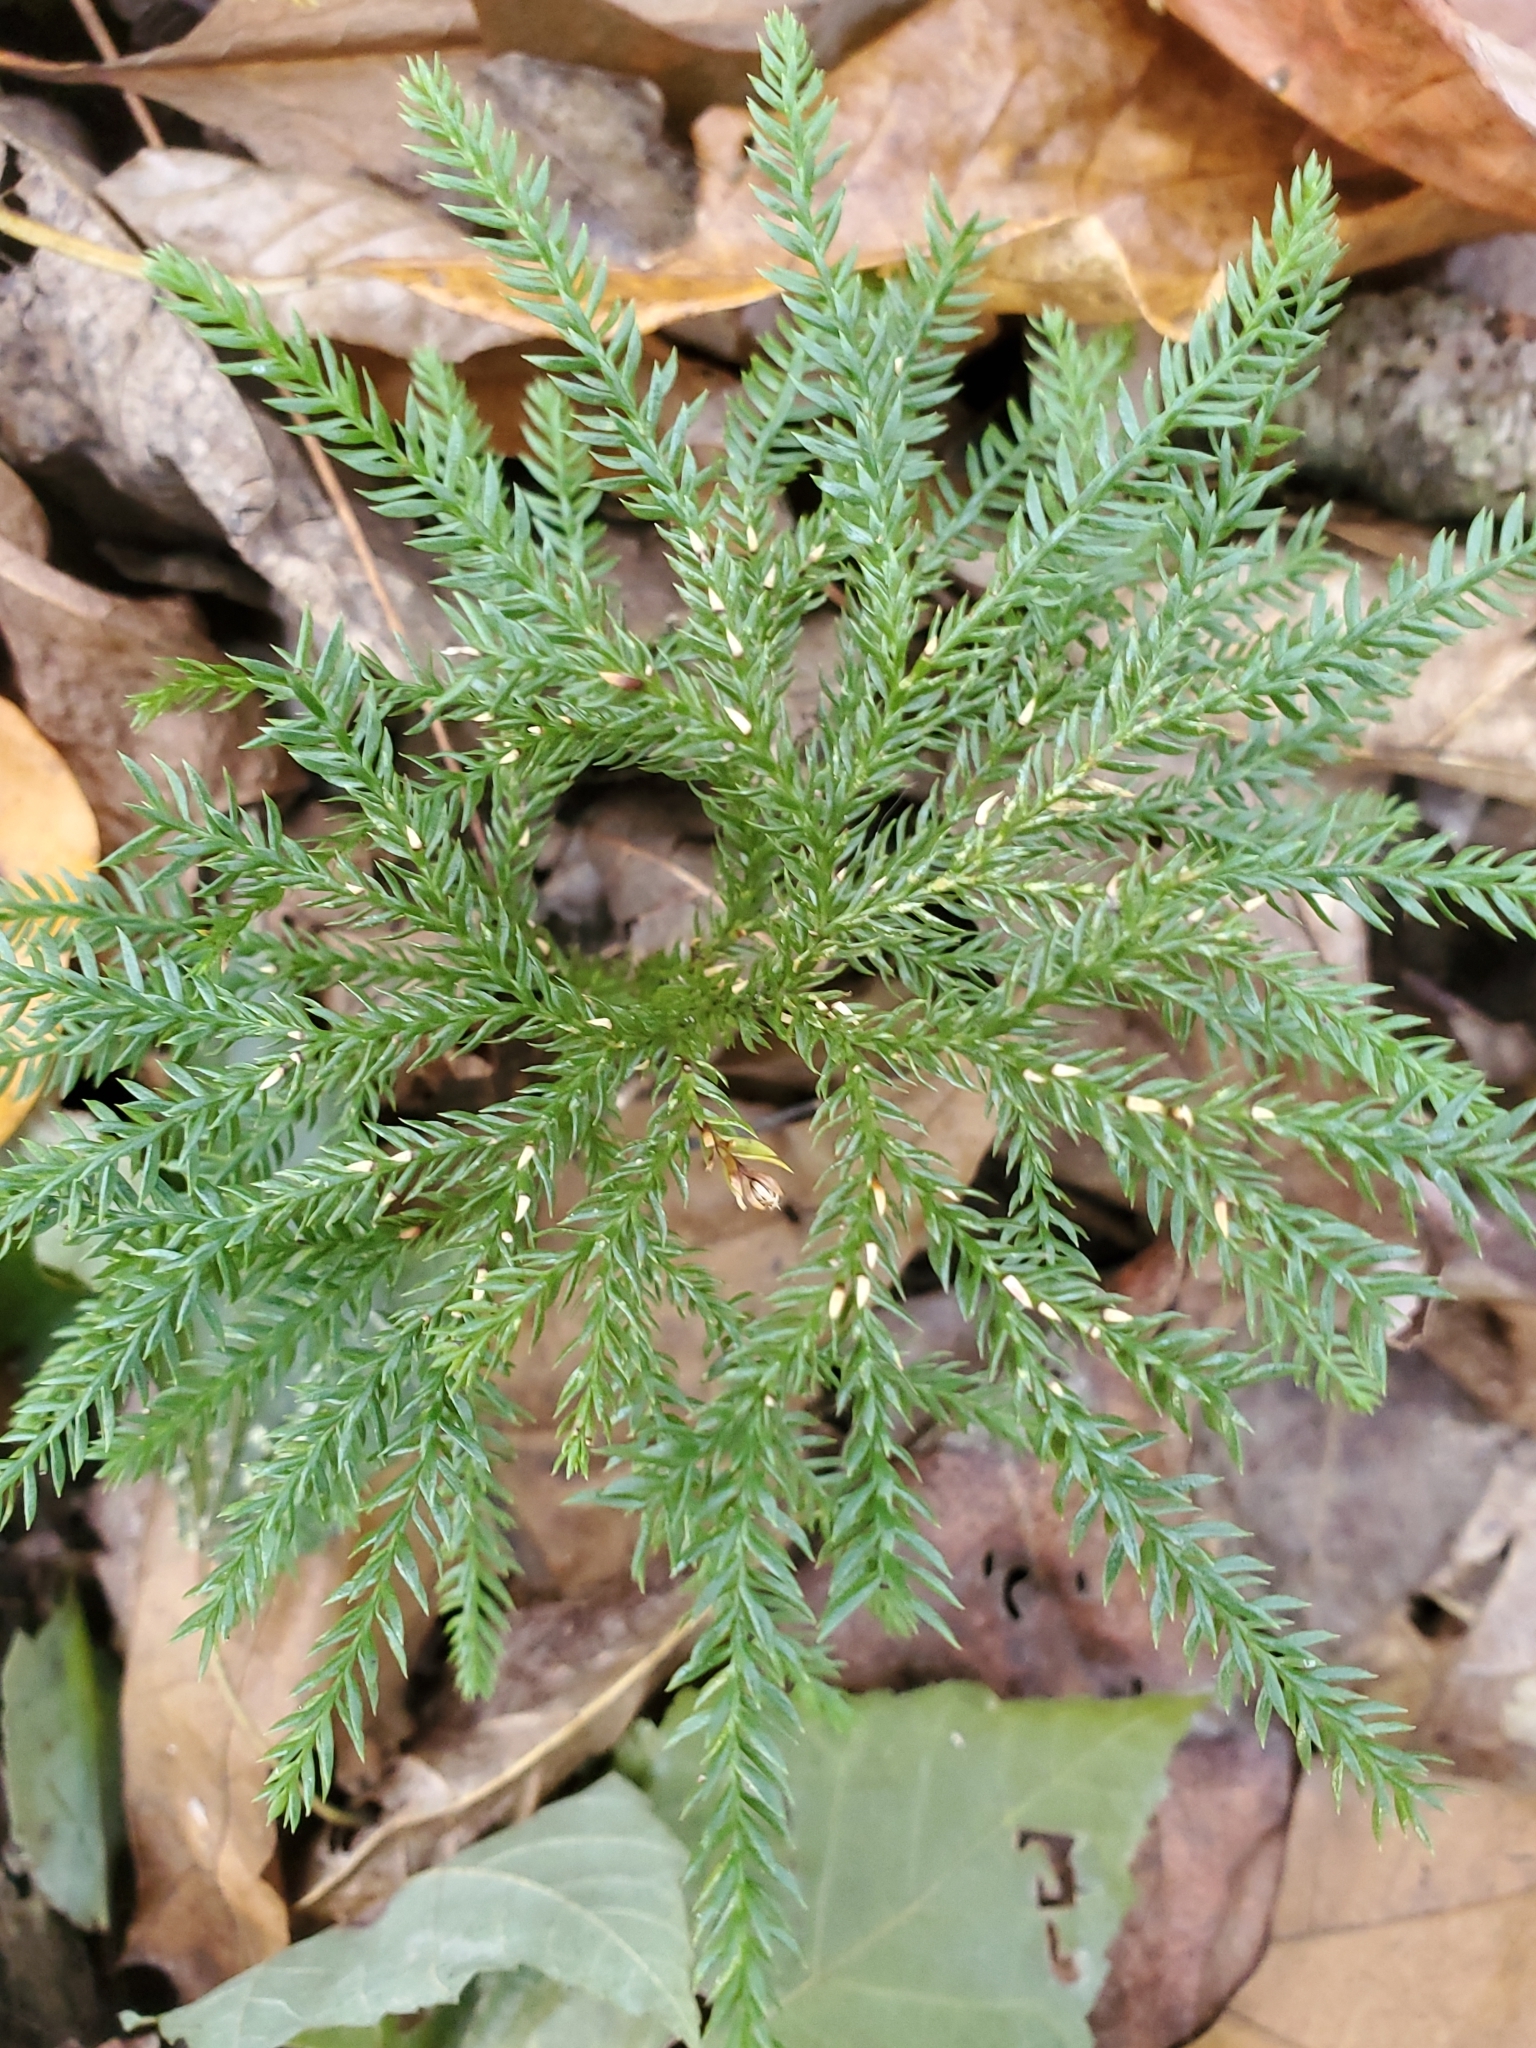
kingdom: Plantae
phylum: Tracheophyta
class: Lycopodiopsida
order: Lycopodiales
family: Lycopodiaceae
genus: Dendrolycopodium
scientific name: Dendrolycopodium obscurum
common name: Common ground-pine
